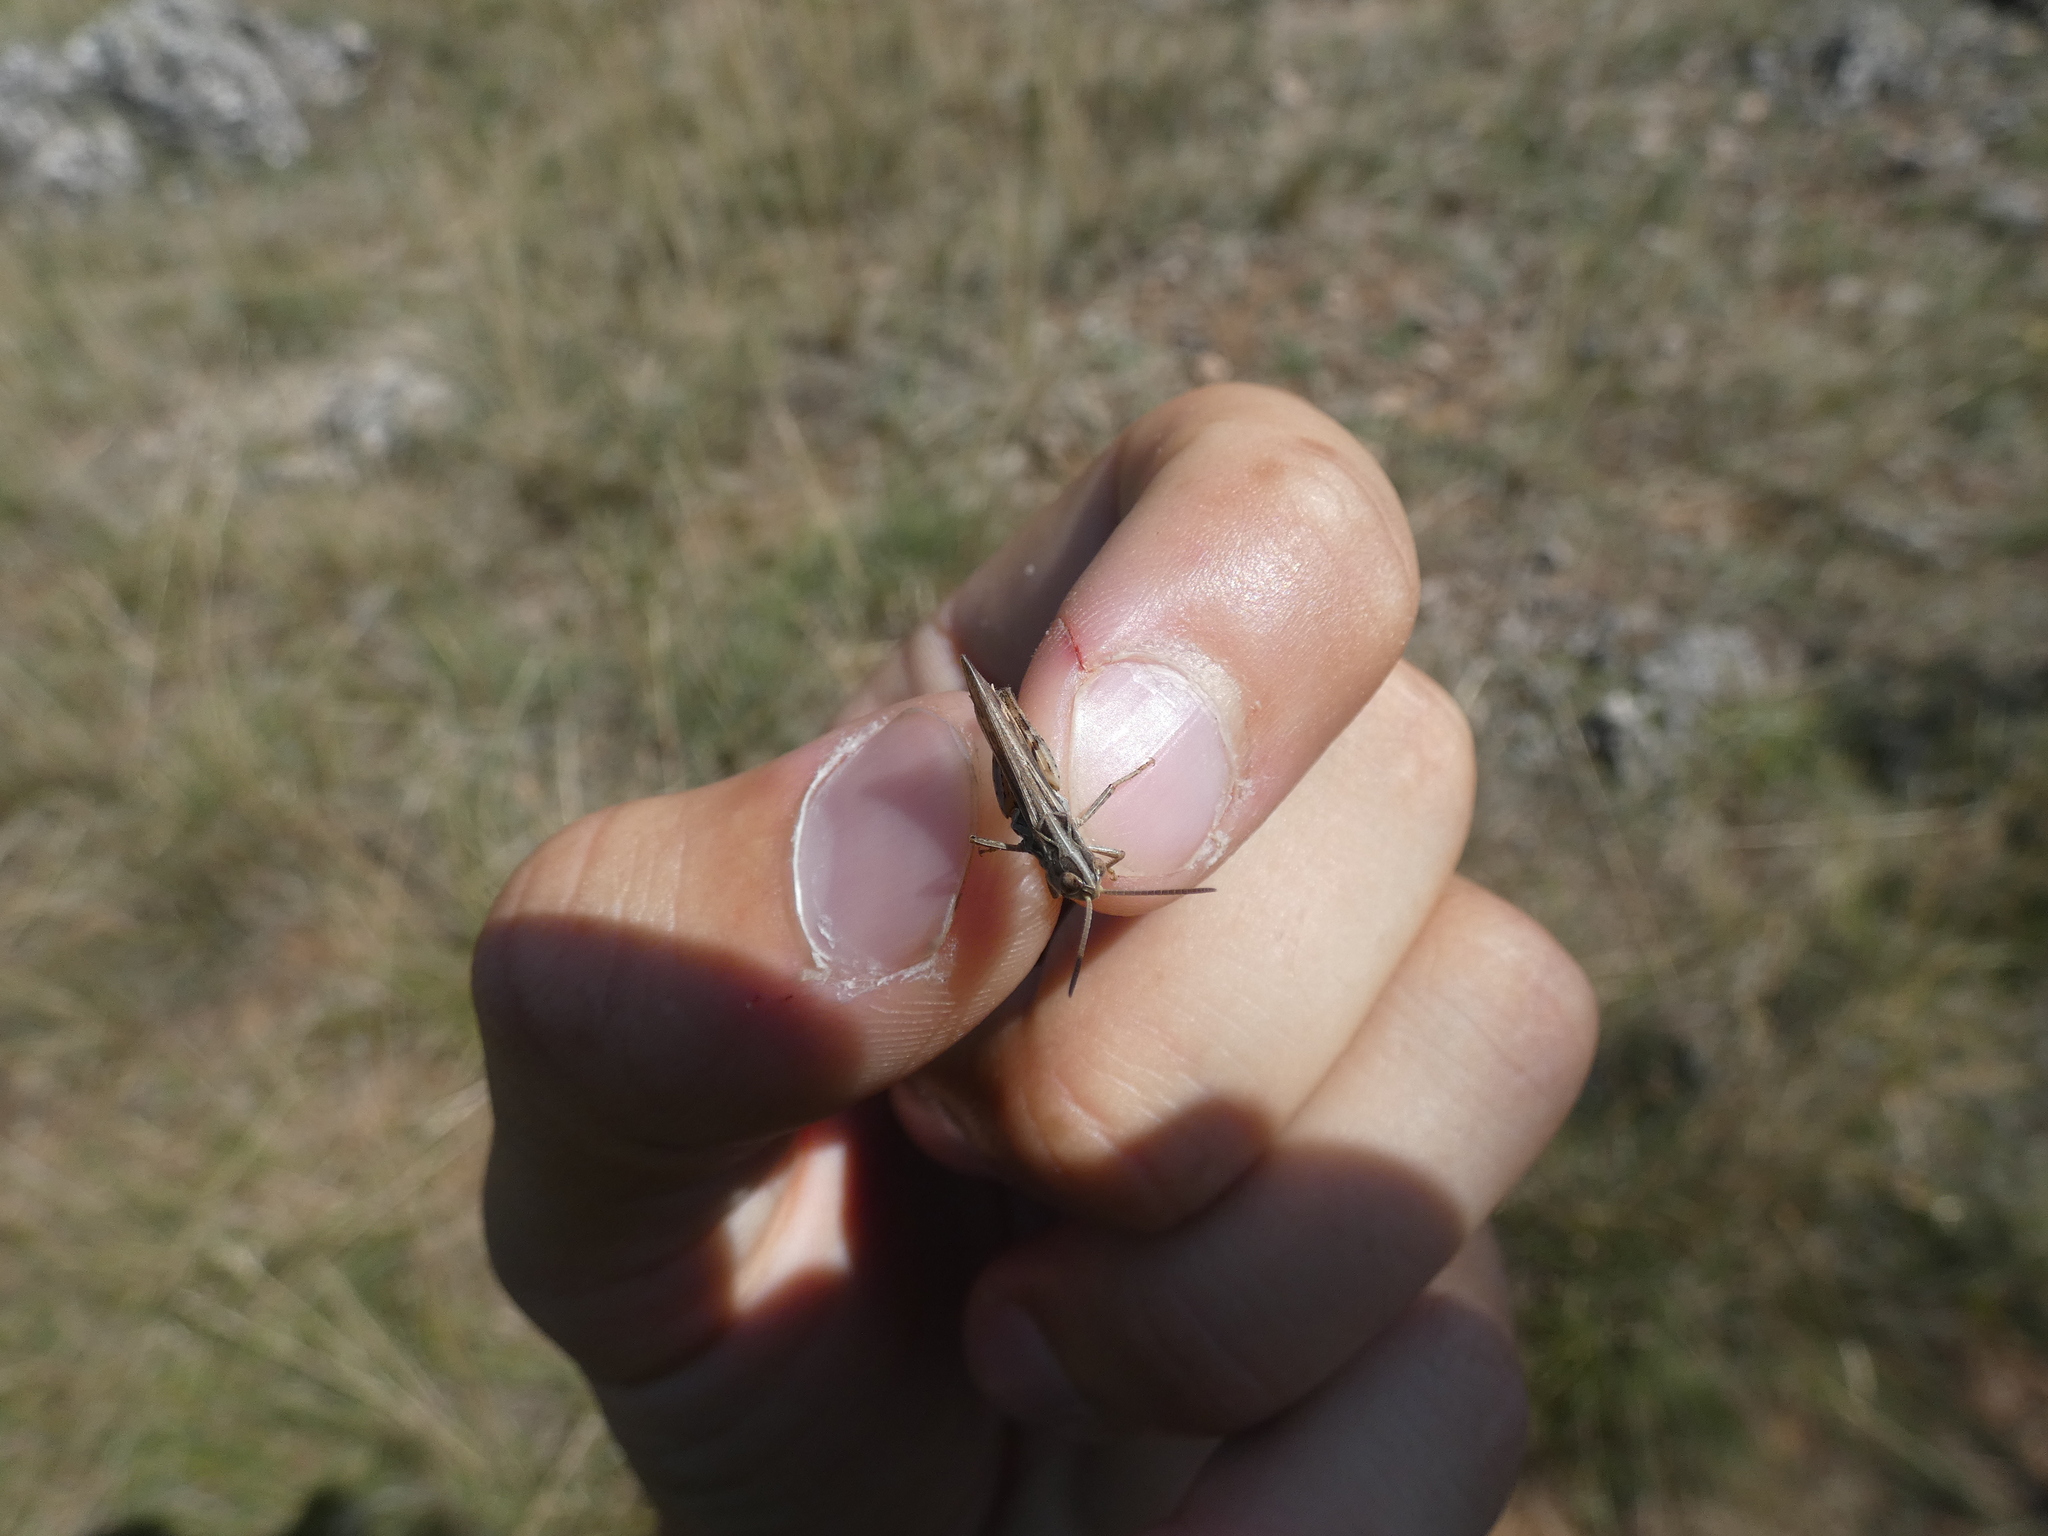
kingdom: Animalia
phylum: Arthropoda
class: Insecta
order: Orthoptera
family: Acrididae
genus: Omocestus
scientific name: Omocestus petraeus
